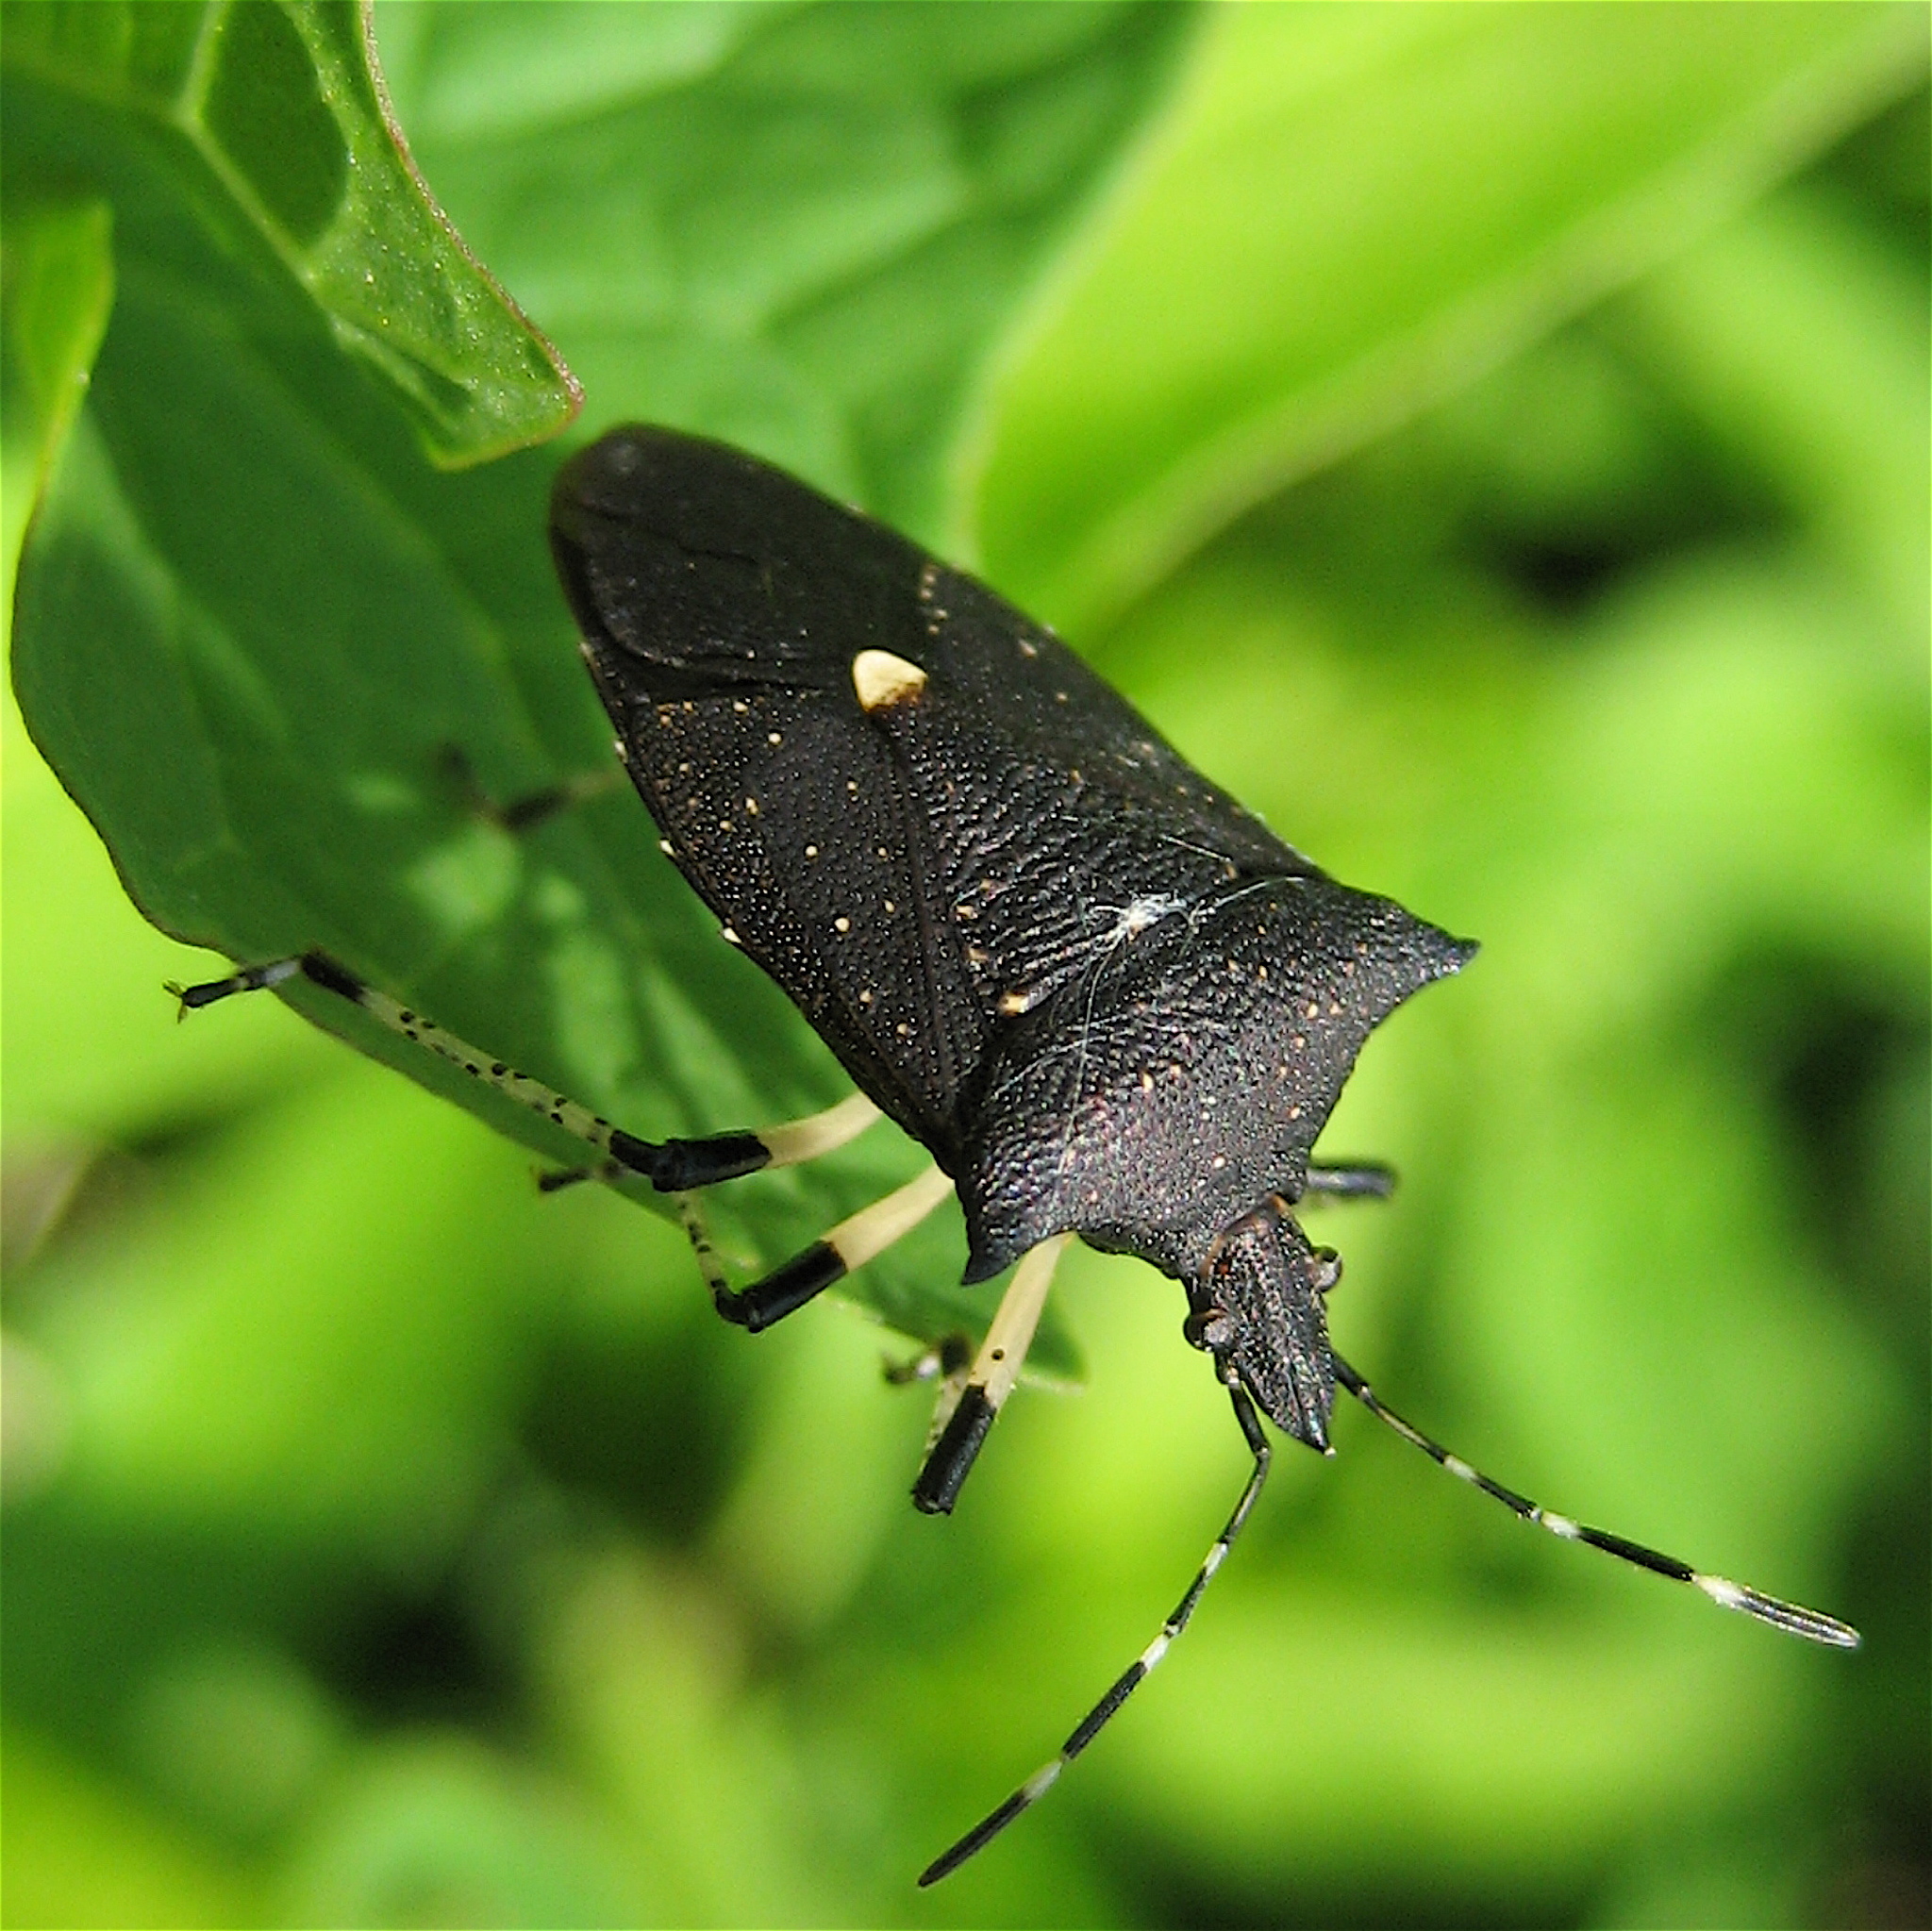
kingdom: Animalia
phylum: Arthropoda
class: Insecta
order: Hemiptera
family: Pentatomidae
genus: Proxys
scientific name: Proxys punctulatus
